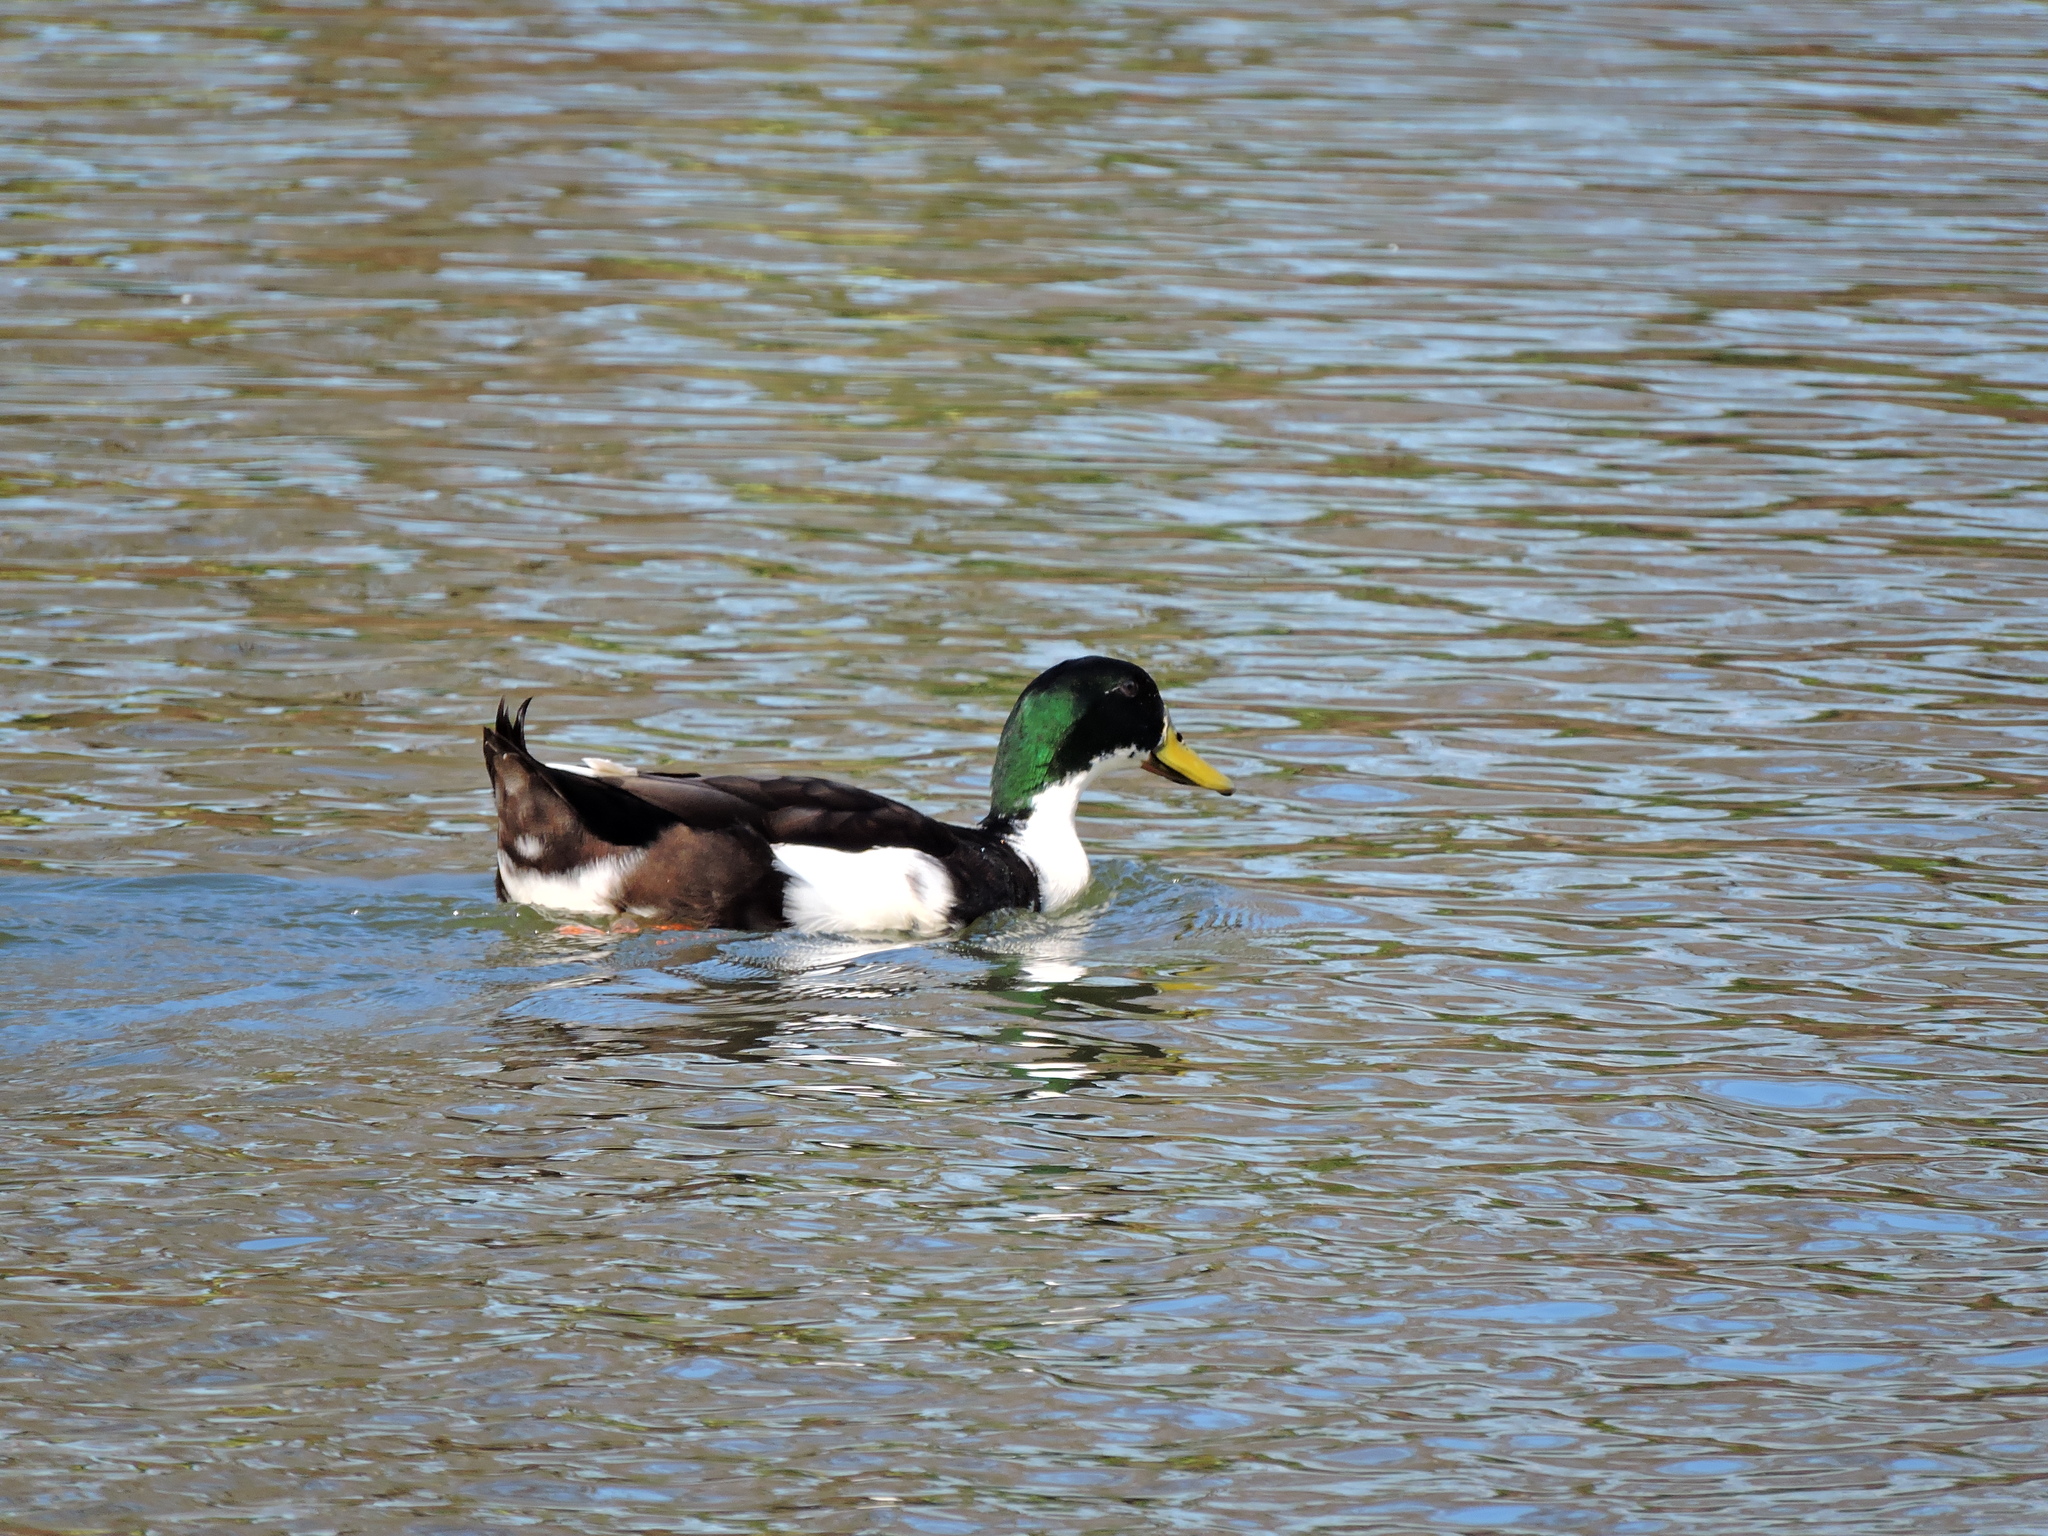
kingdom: Animalia
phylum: Chordata
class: Aves
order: Anseriformes
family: Anatidae
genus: Anas
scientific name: Anas platyrhynchos
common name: Mallard
